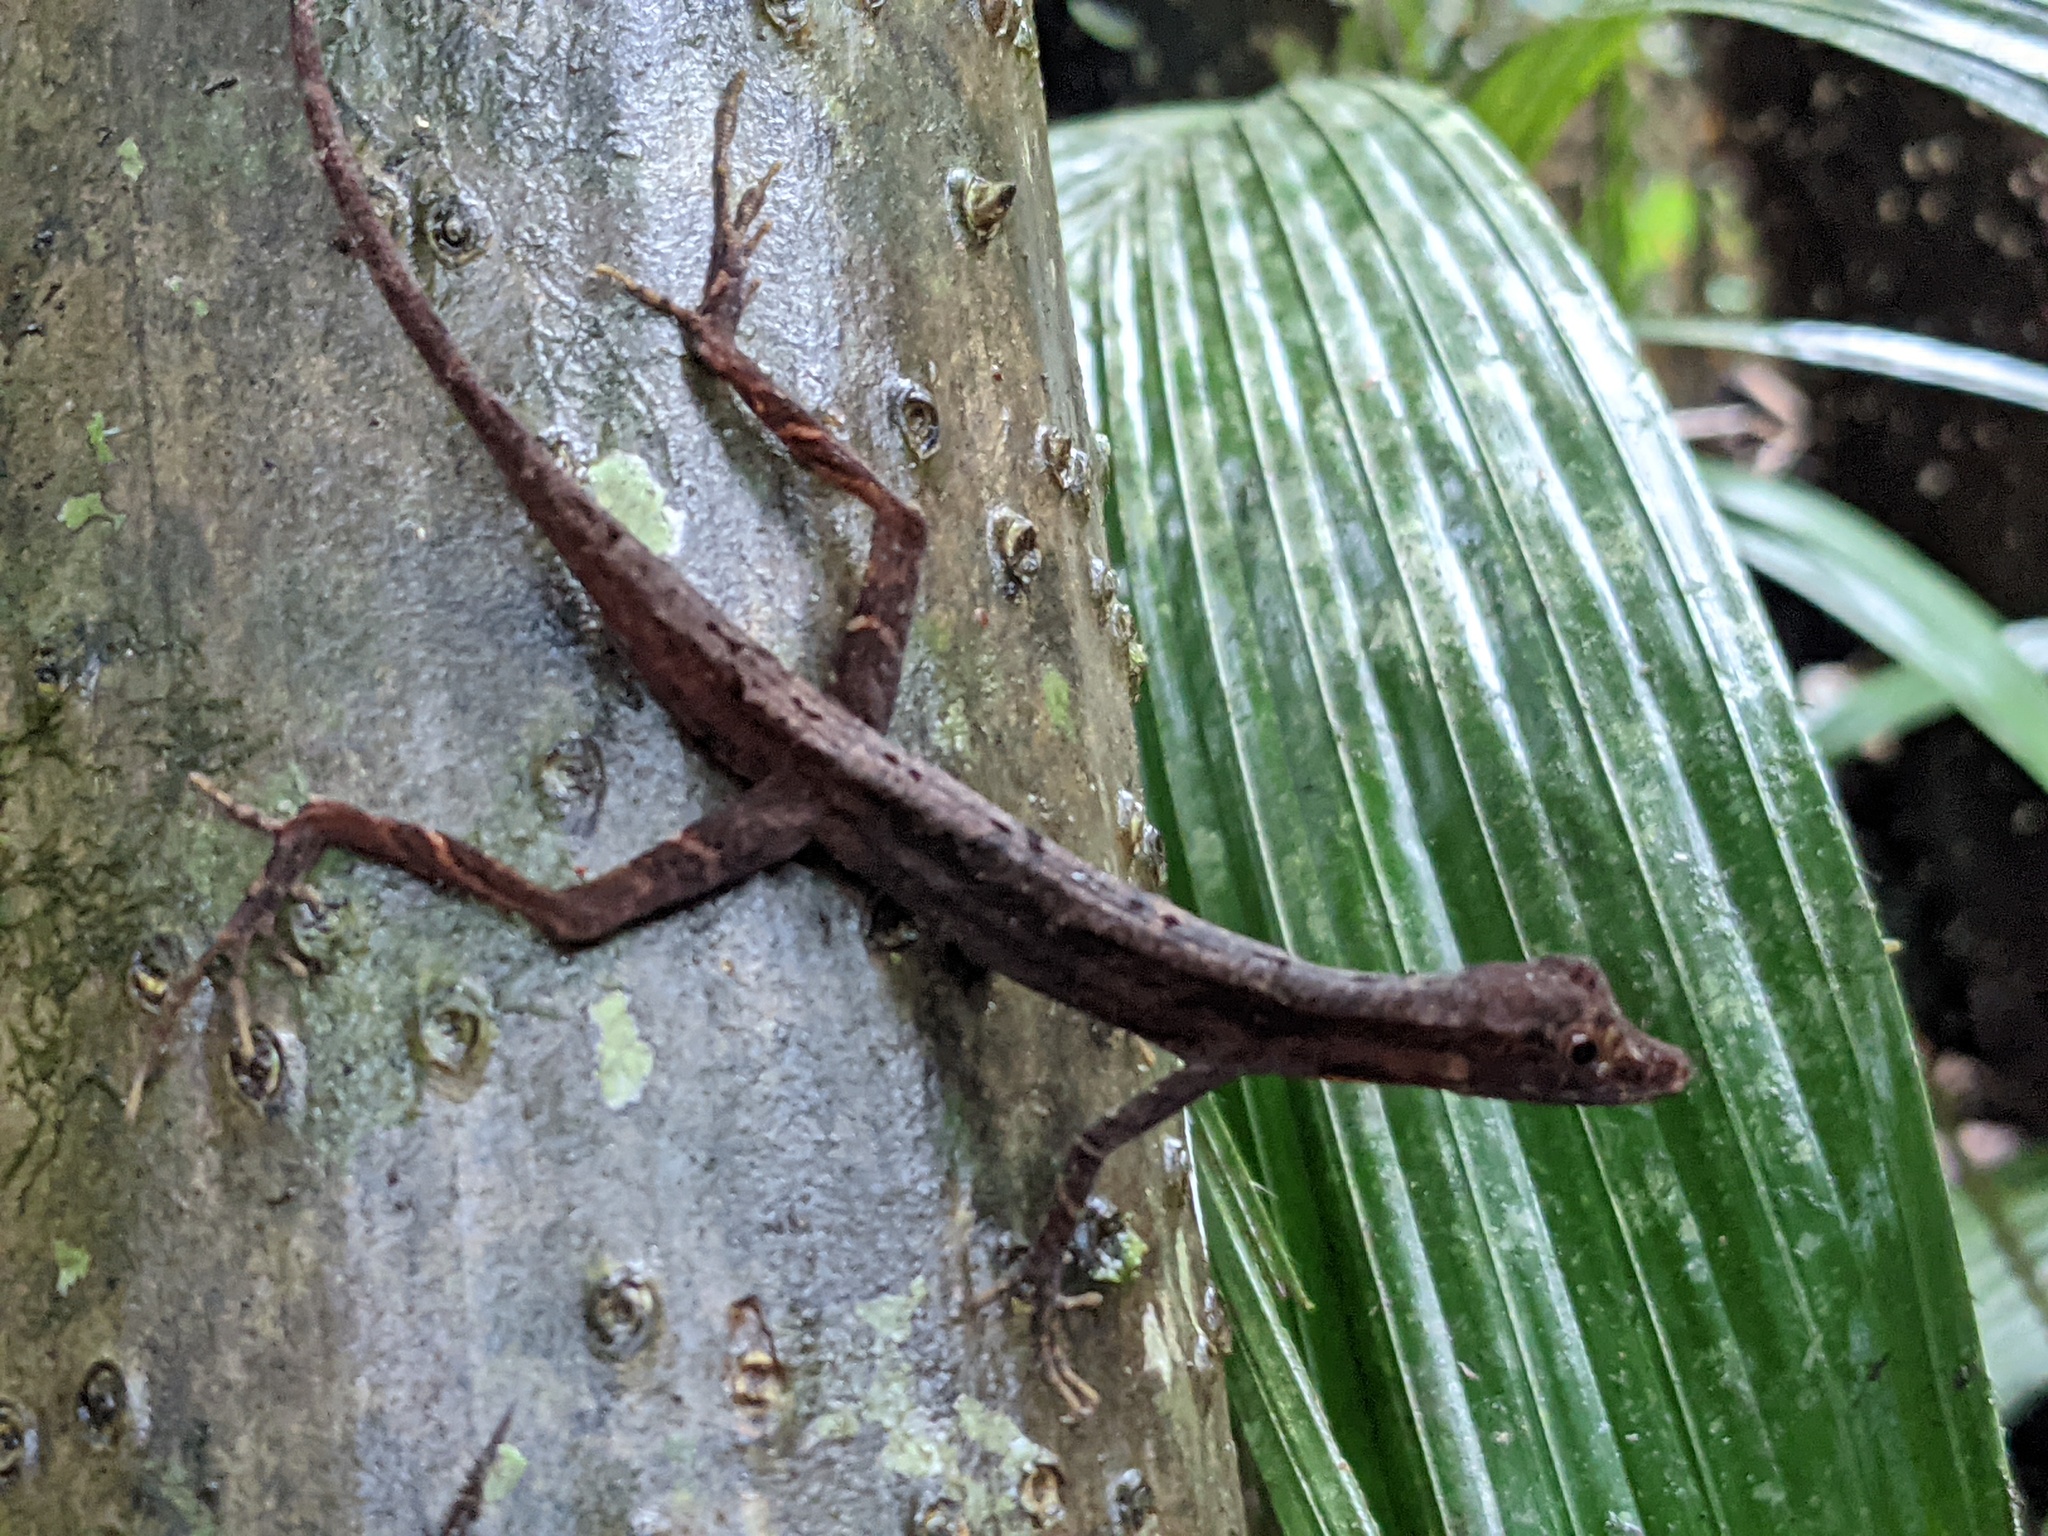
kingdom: Animalia
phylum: Chordata
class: Squamata
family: Dactyloidae
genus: Anolis
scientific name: Anolis trachyderma
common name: Common forest anole
